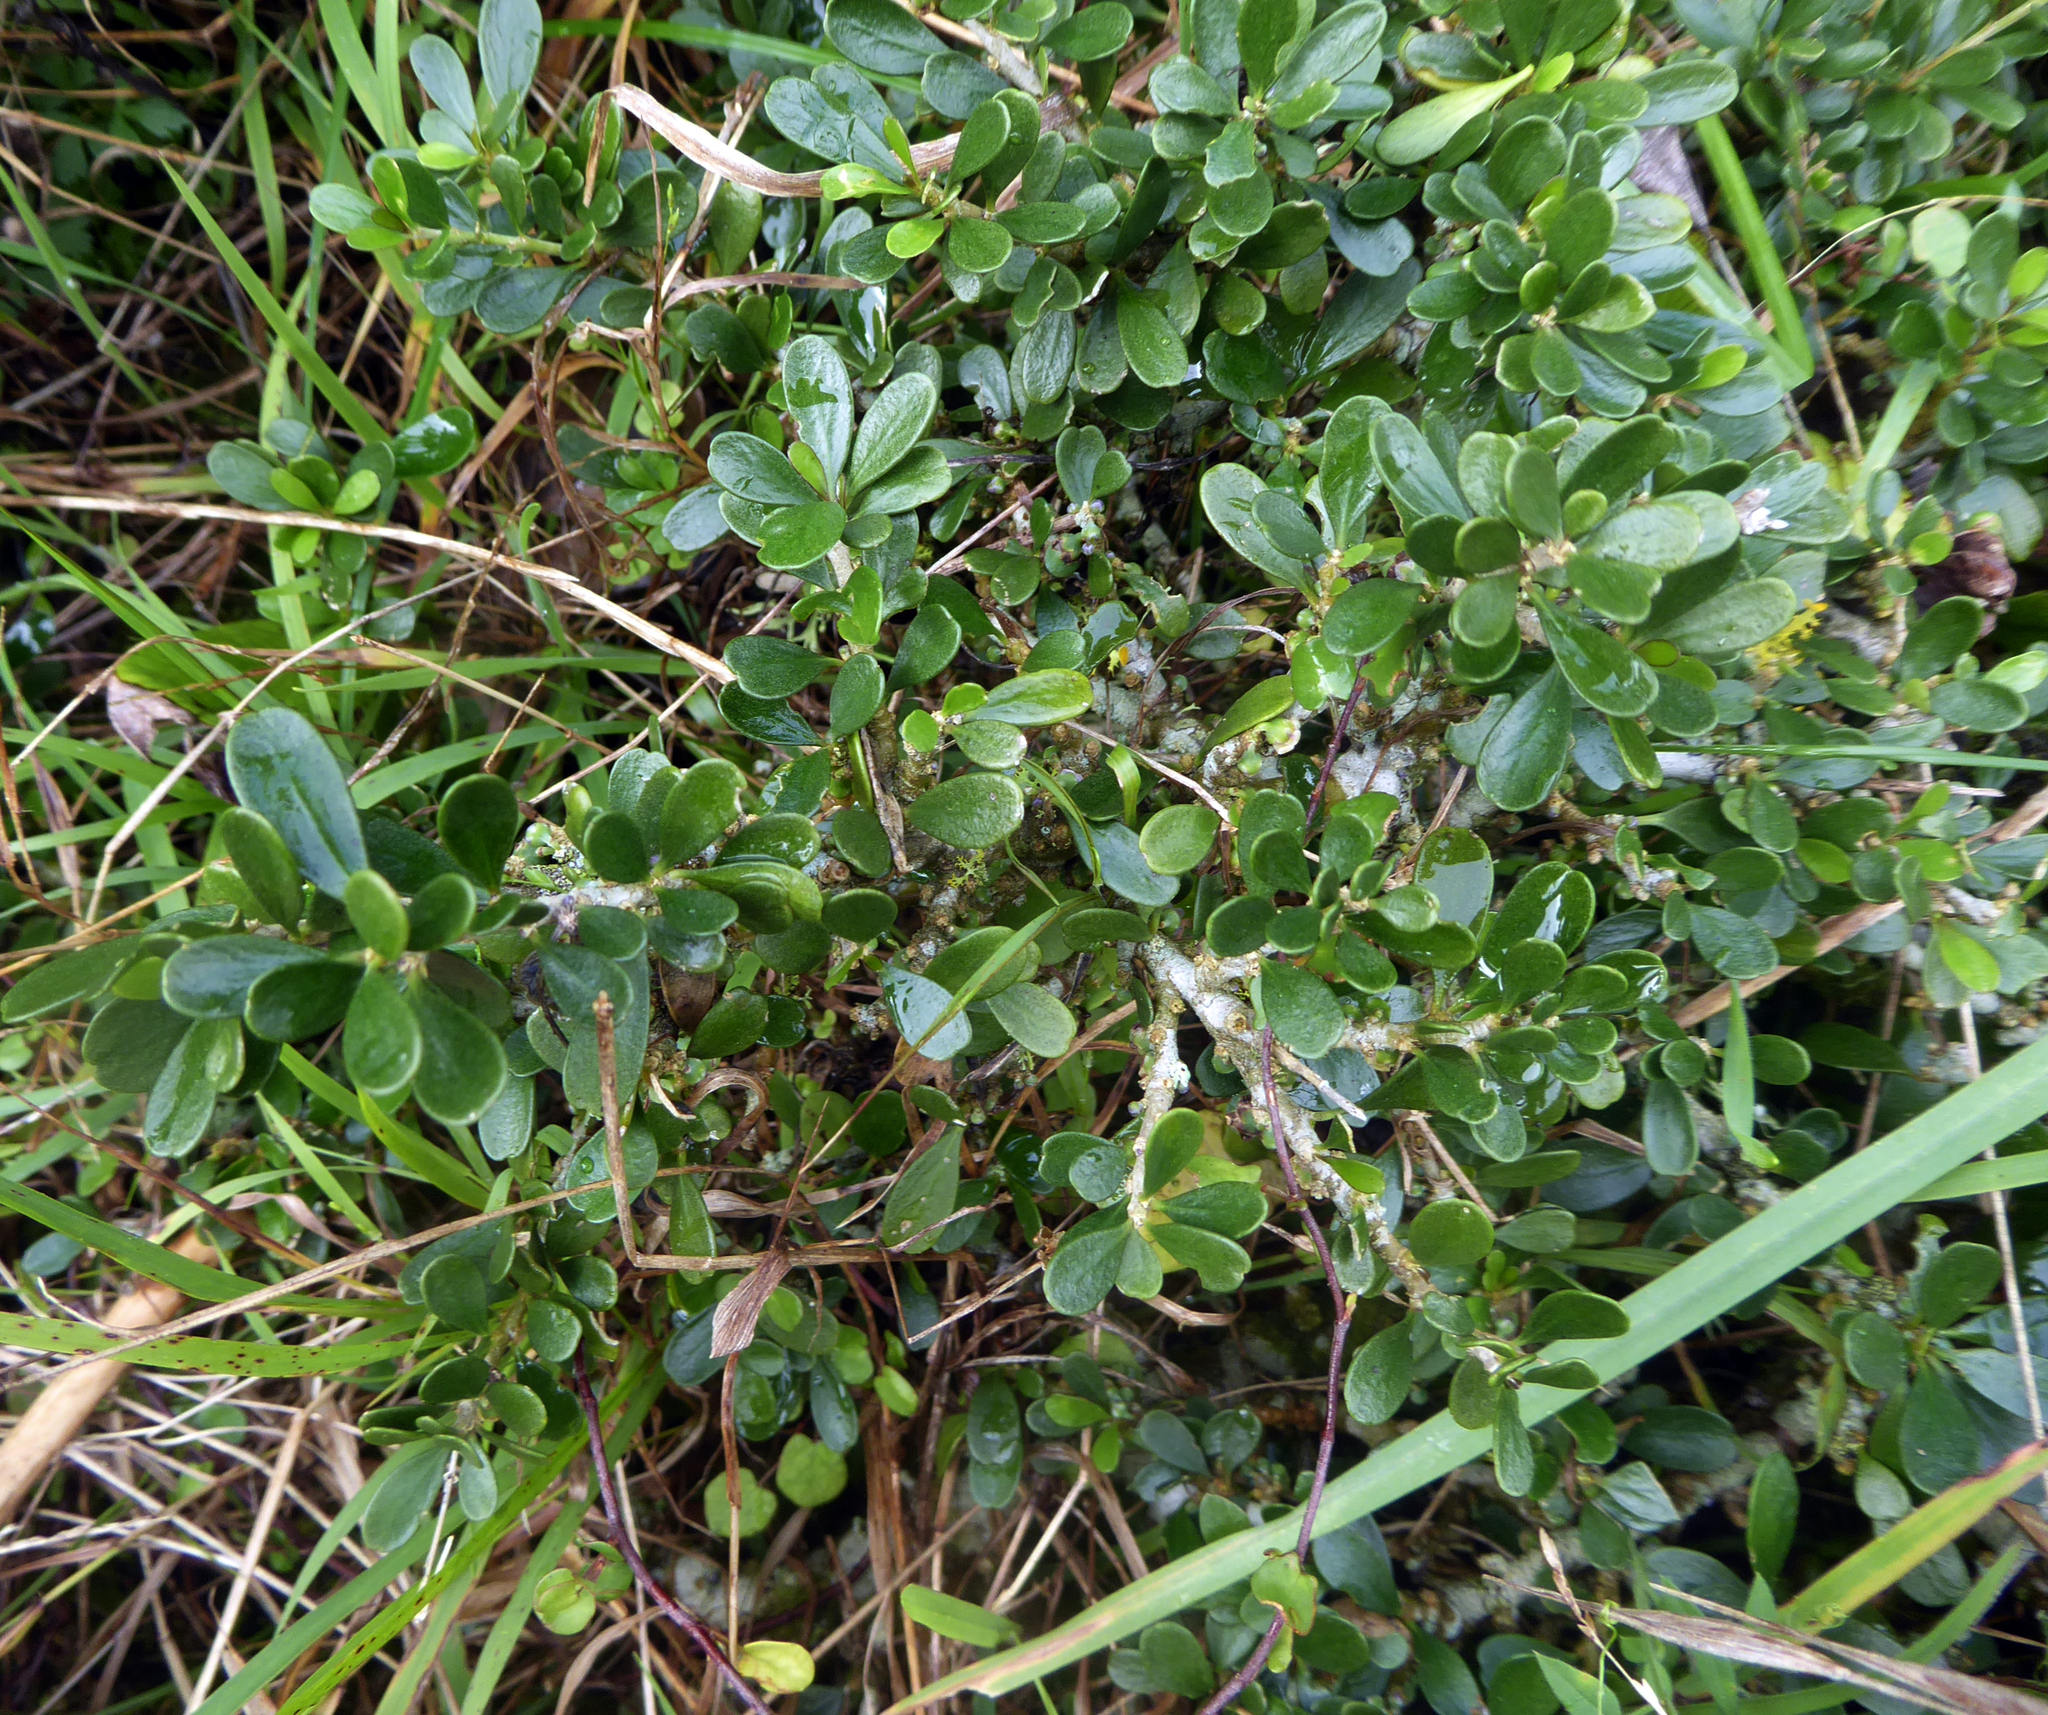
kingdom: Plantae
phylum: Tracheophyta
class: Magnoliopsida
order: Malpighiales
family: Violaceae
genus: Melicytus
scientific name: Melicytus crassifolius
